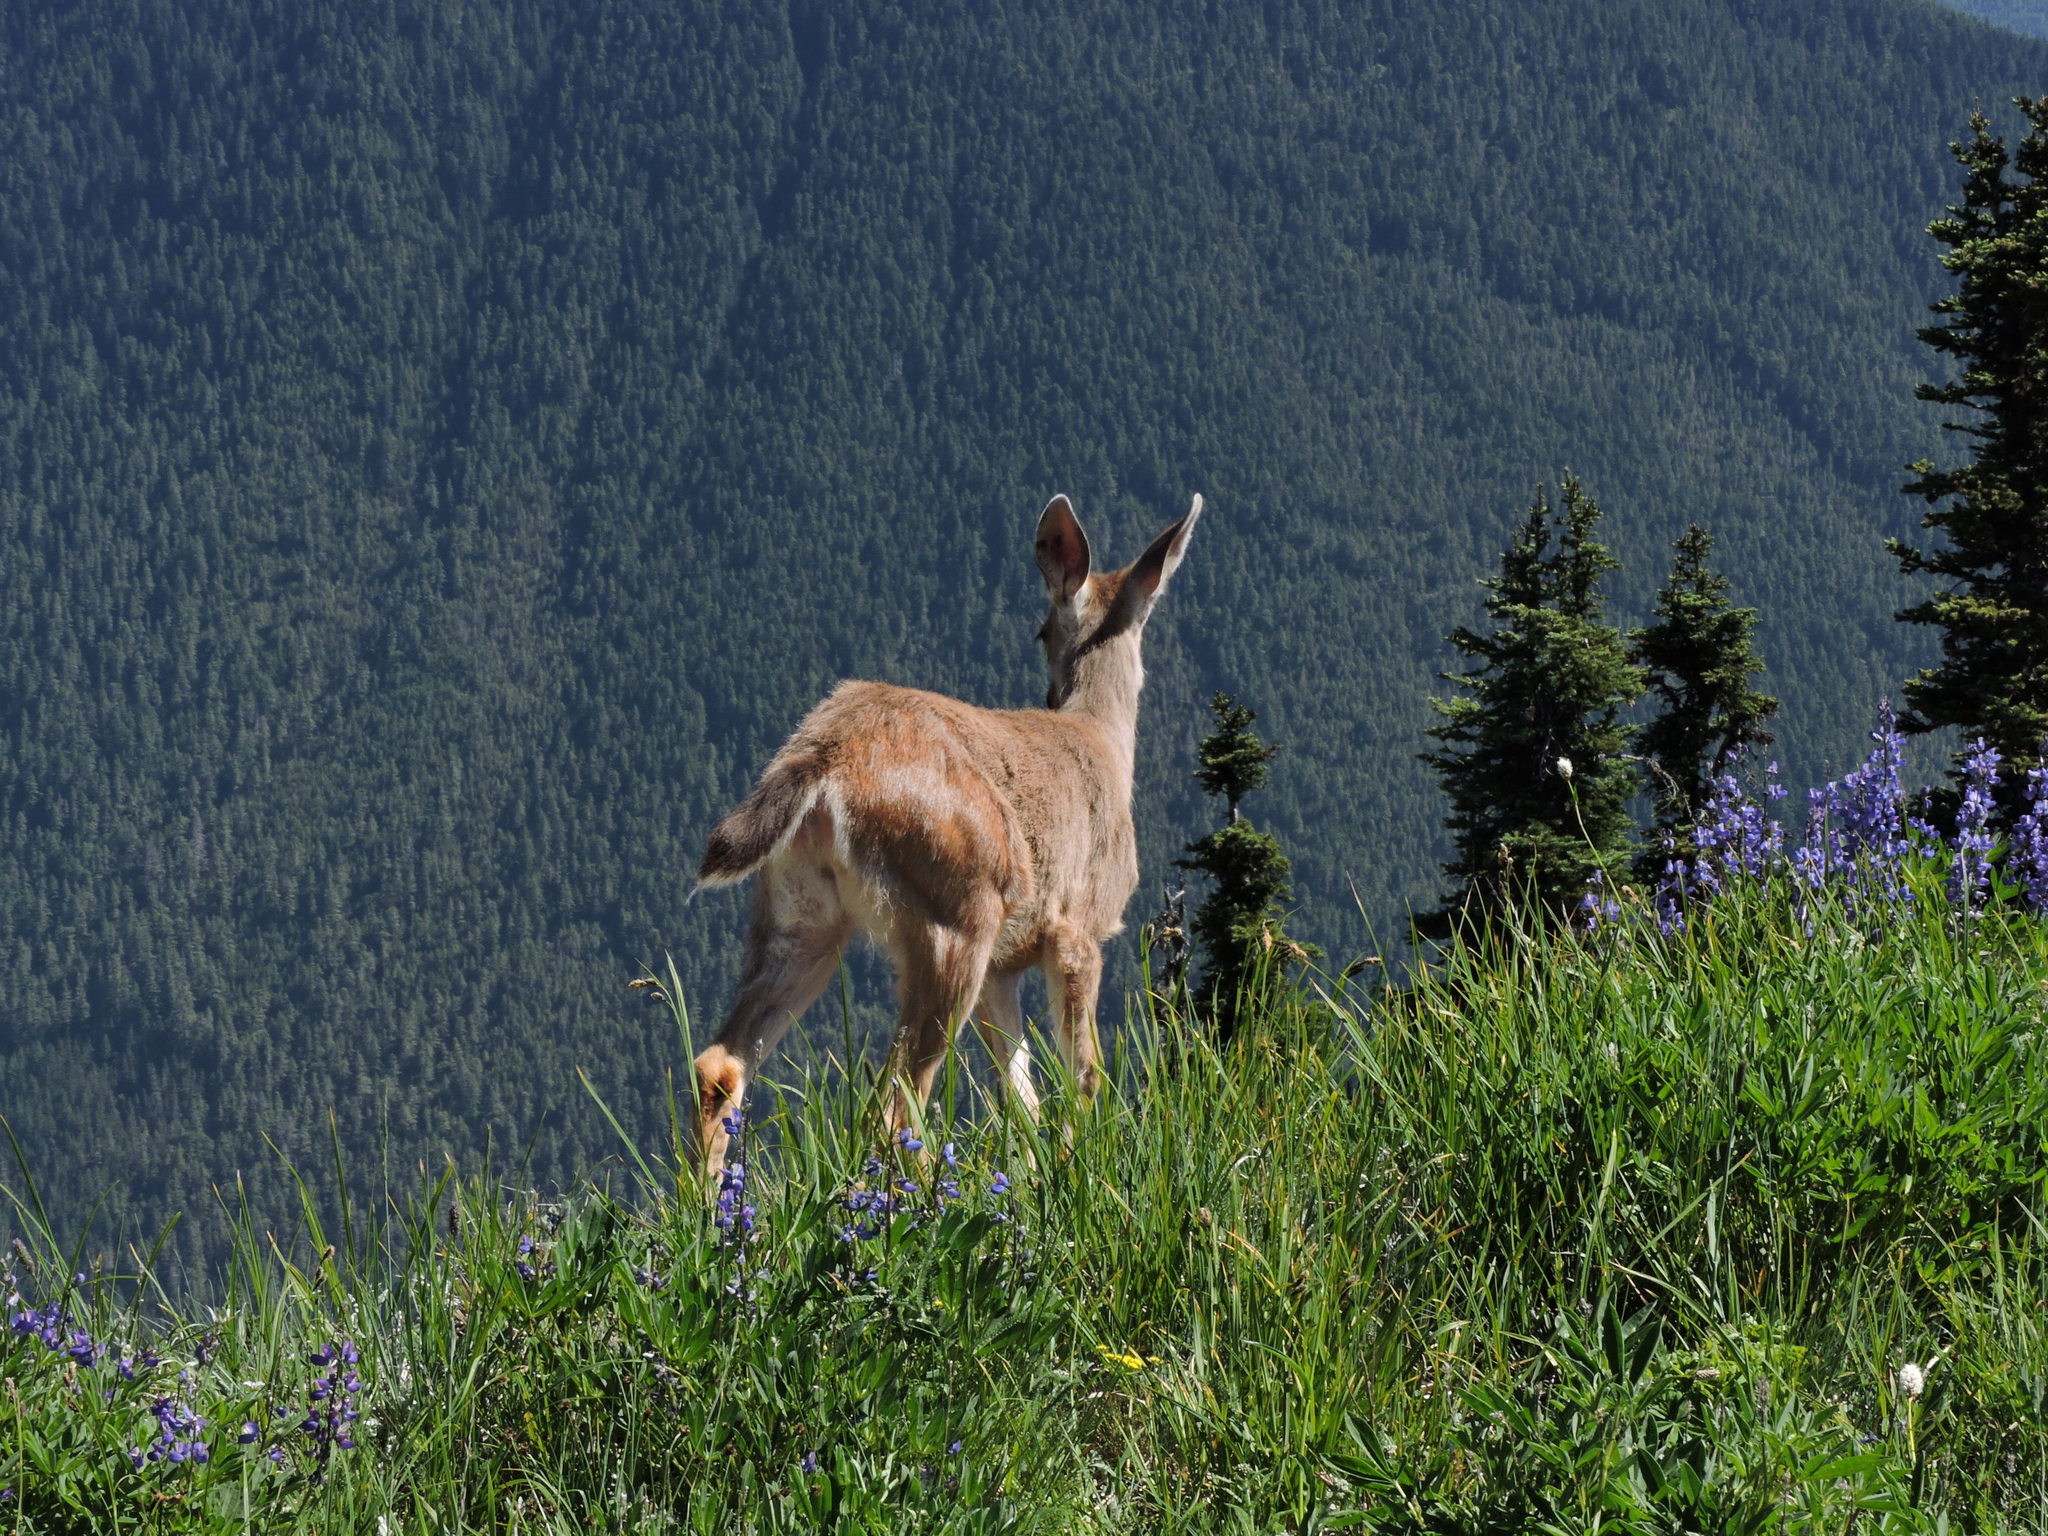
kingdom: Animalia
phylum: Chordata
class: Mammalia
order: Artiodactyla
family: Cervidae
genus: Odocoileus
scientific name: Odocoileus hemionus
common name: Mule deer
